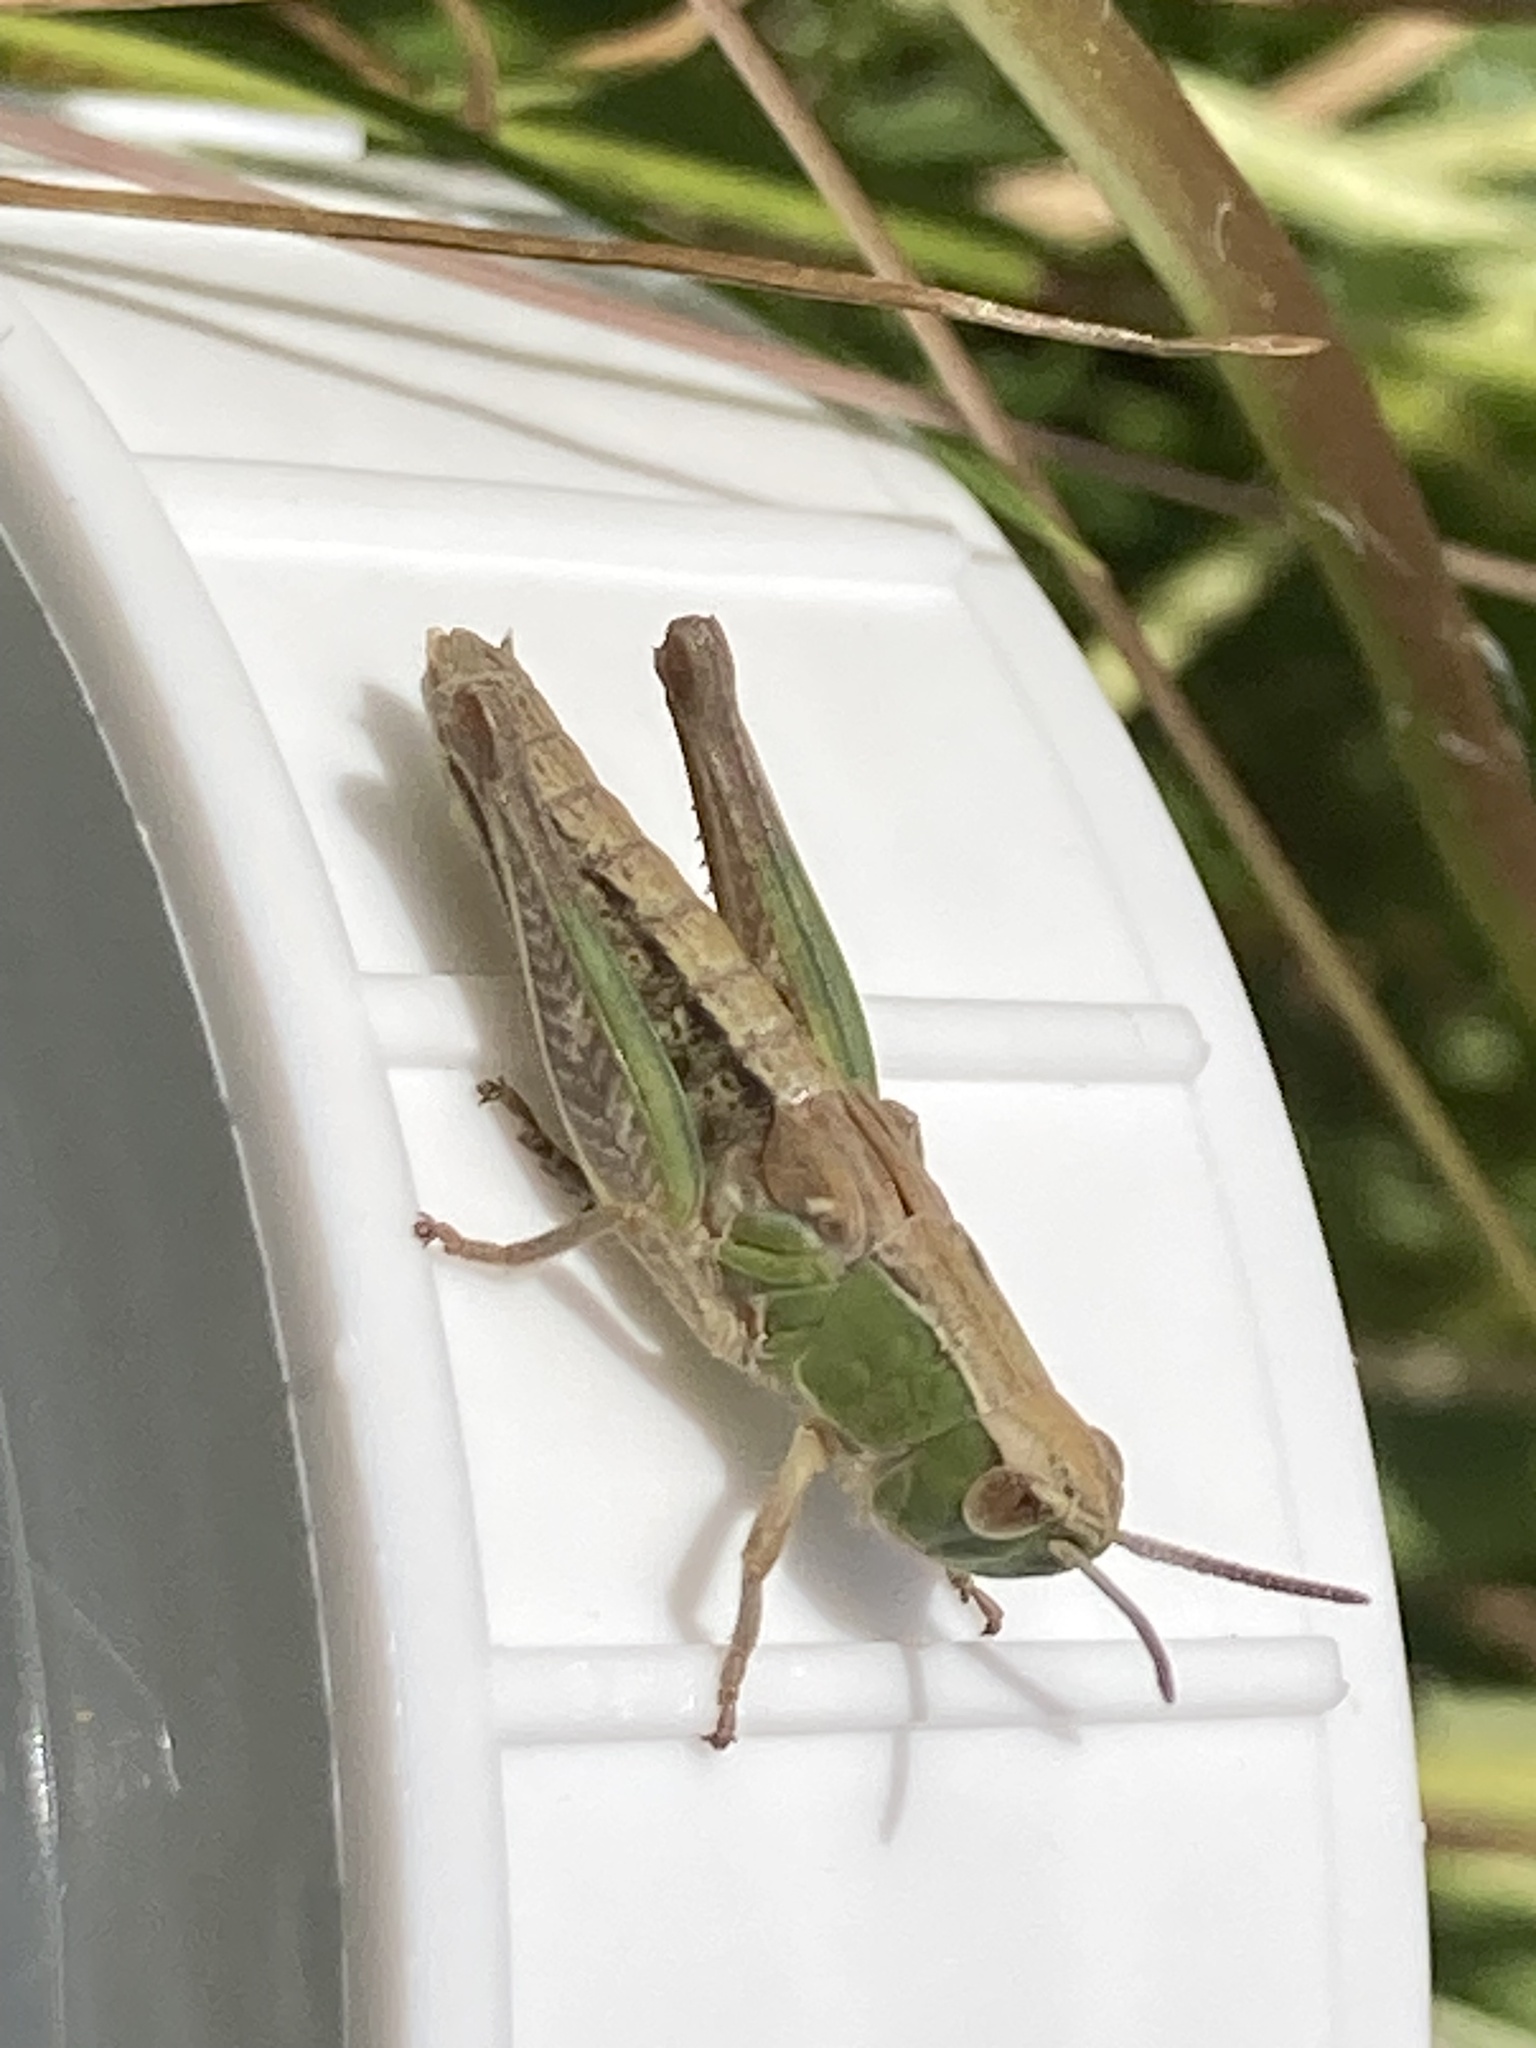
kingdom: Animalia
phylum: Arthropoda
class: Insecta
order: Orthoptera
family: Acrididae
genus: Pseudochorthippus
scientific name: Pseudochorthippus parallelus
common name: Meadow grasshopper
